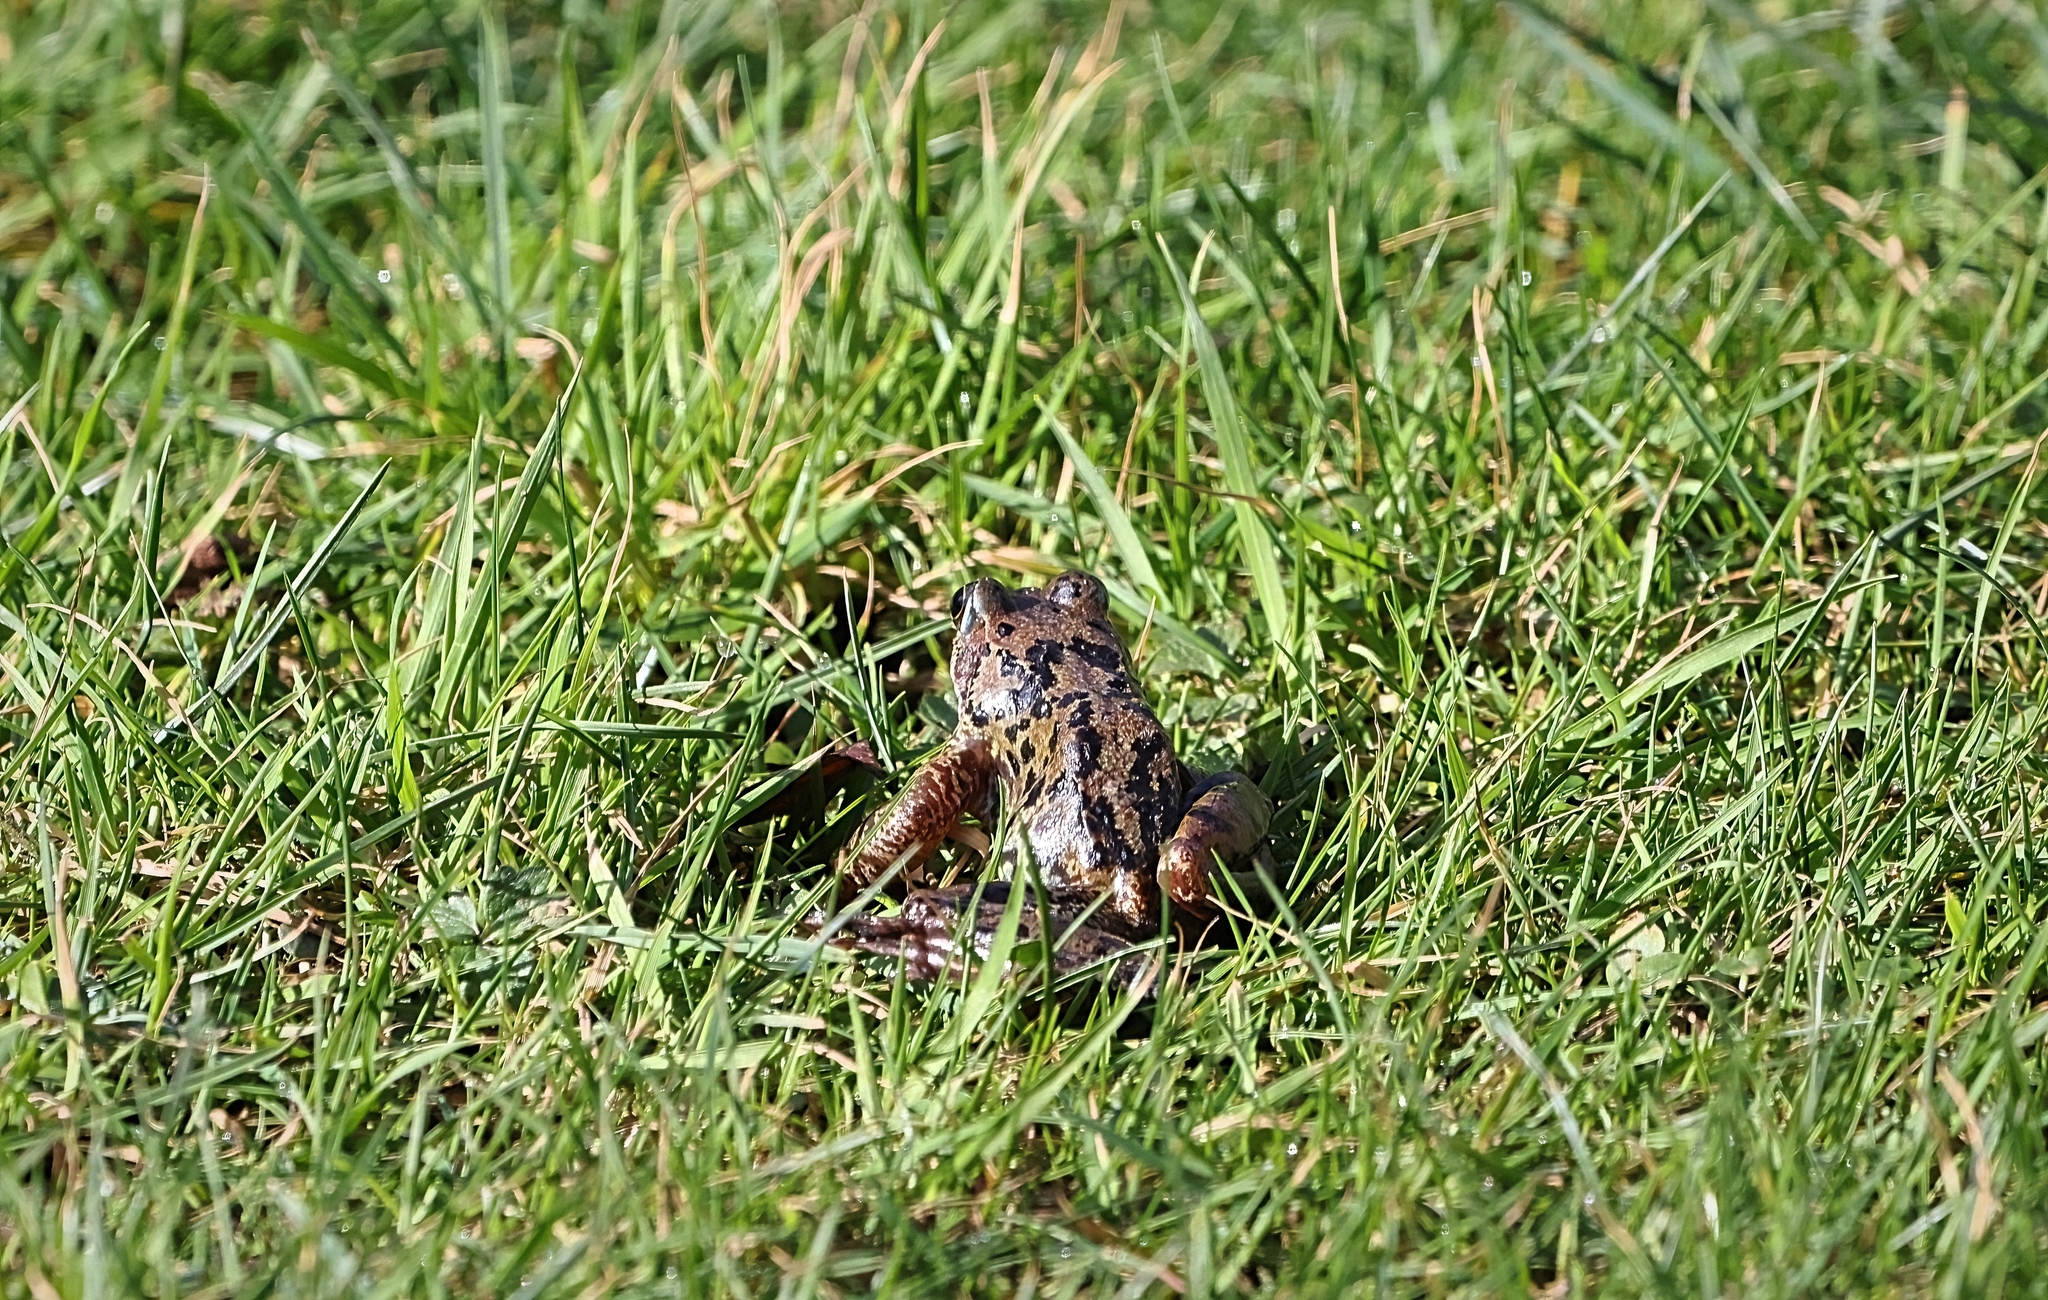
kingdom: Animalia
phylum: Chordata
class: Amphibia
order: Anura
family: Ranidae
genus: Rana
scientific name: Rana temporaria
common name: Common frog
